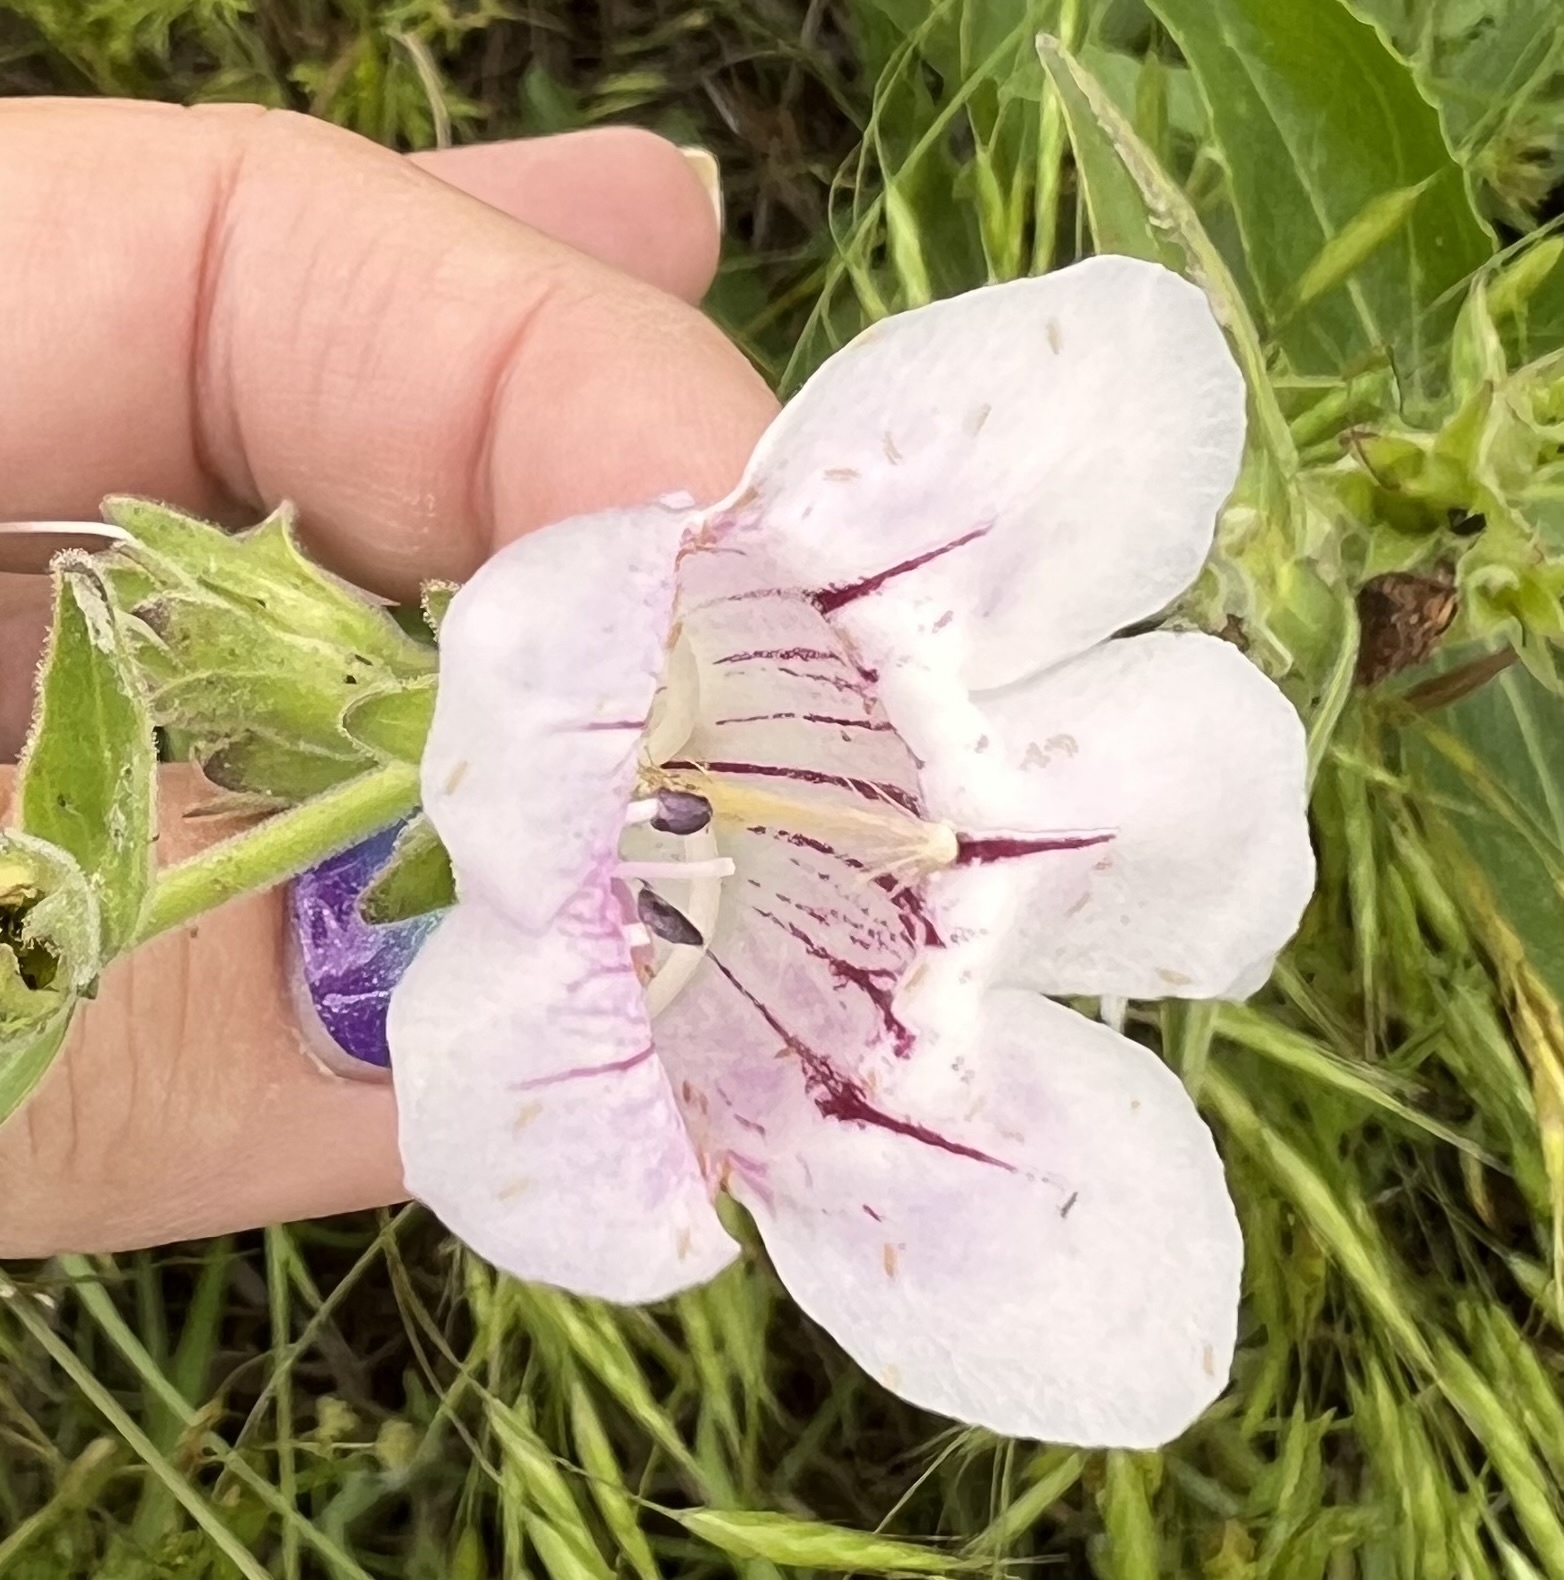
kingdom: Plantae
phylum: Tracheophyta
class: Magnoliopsida
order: Lamiales
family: Plantaginaceae
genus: Penstemon
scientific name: Penstemon cobaea
